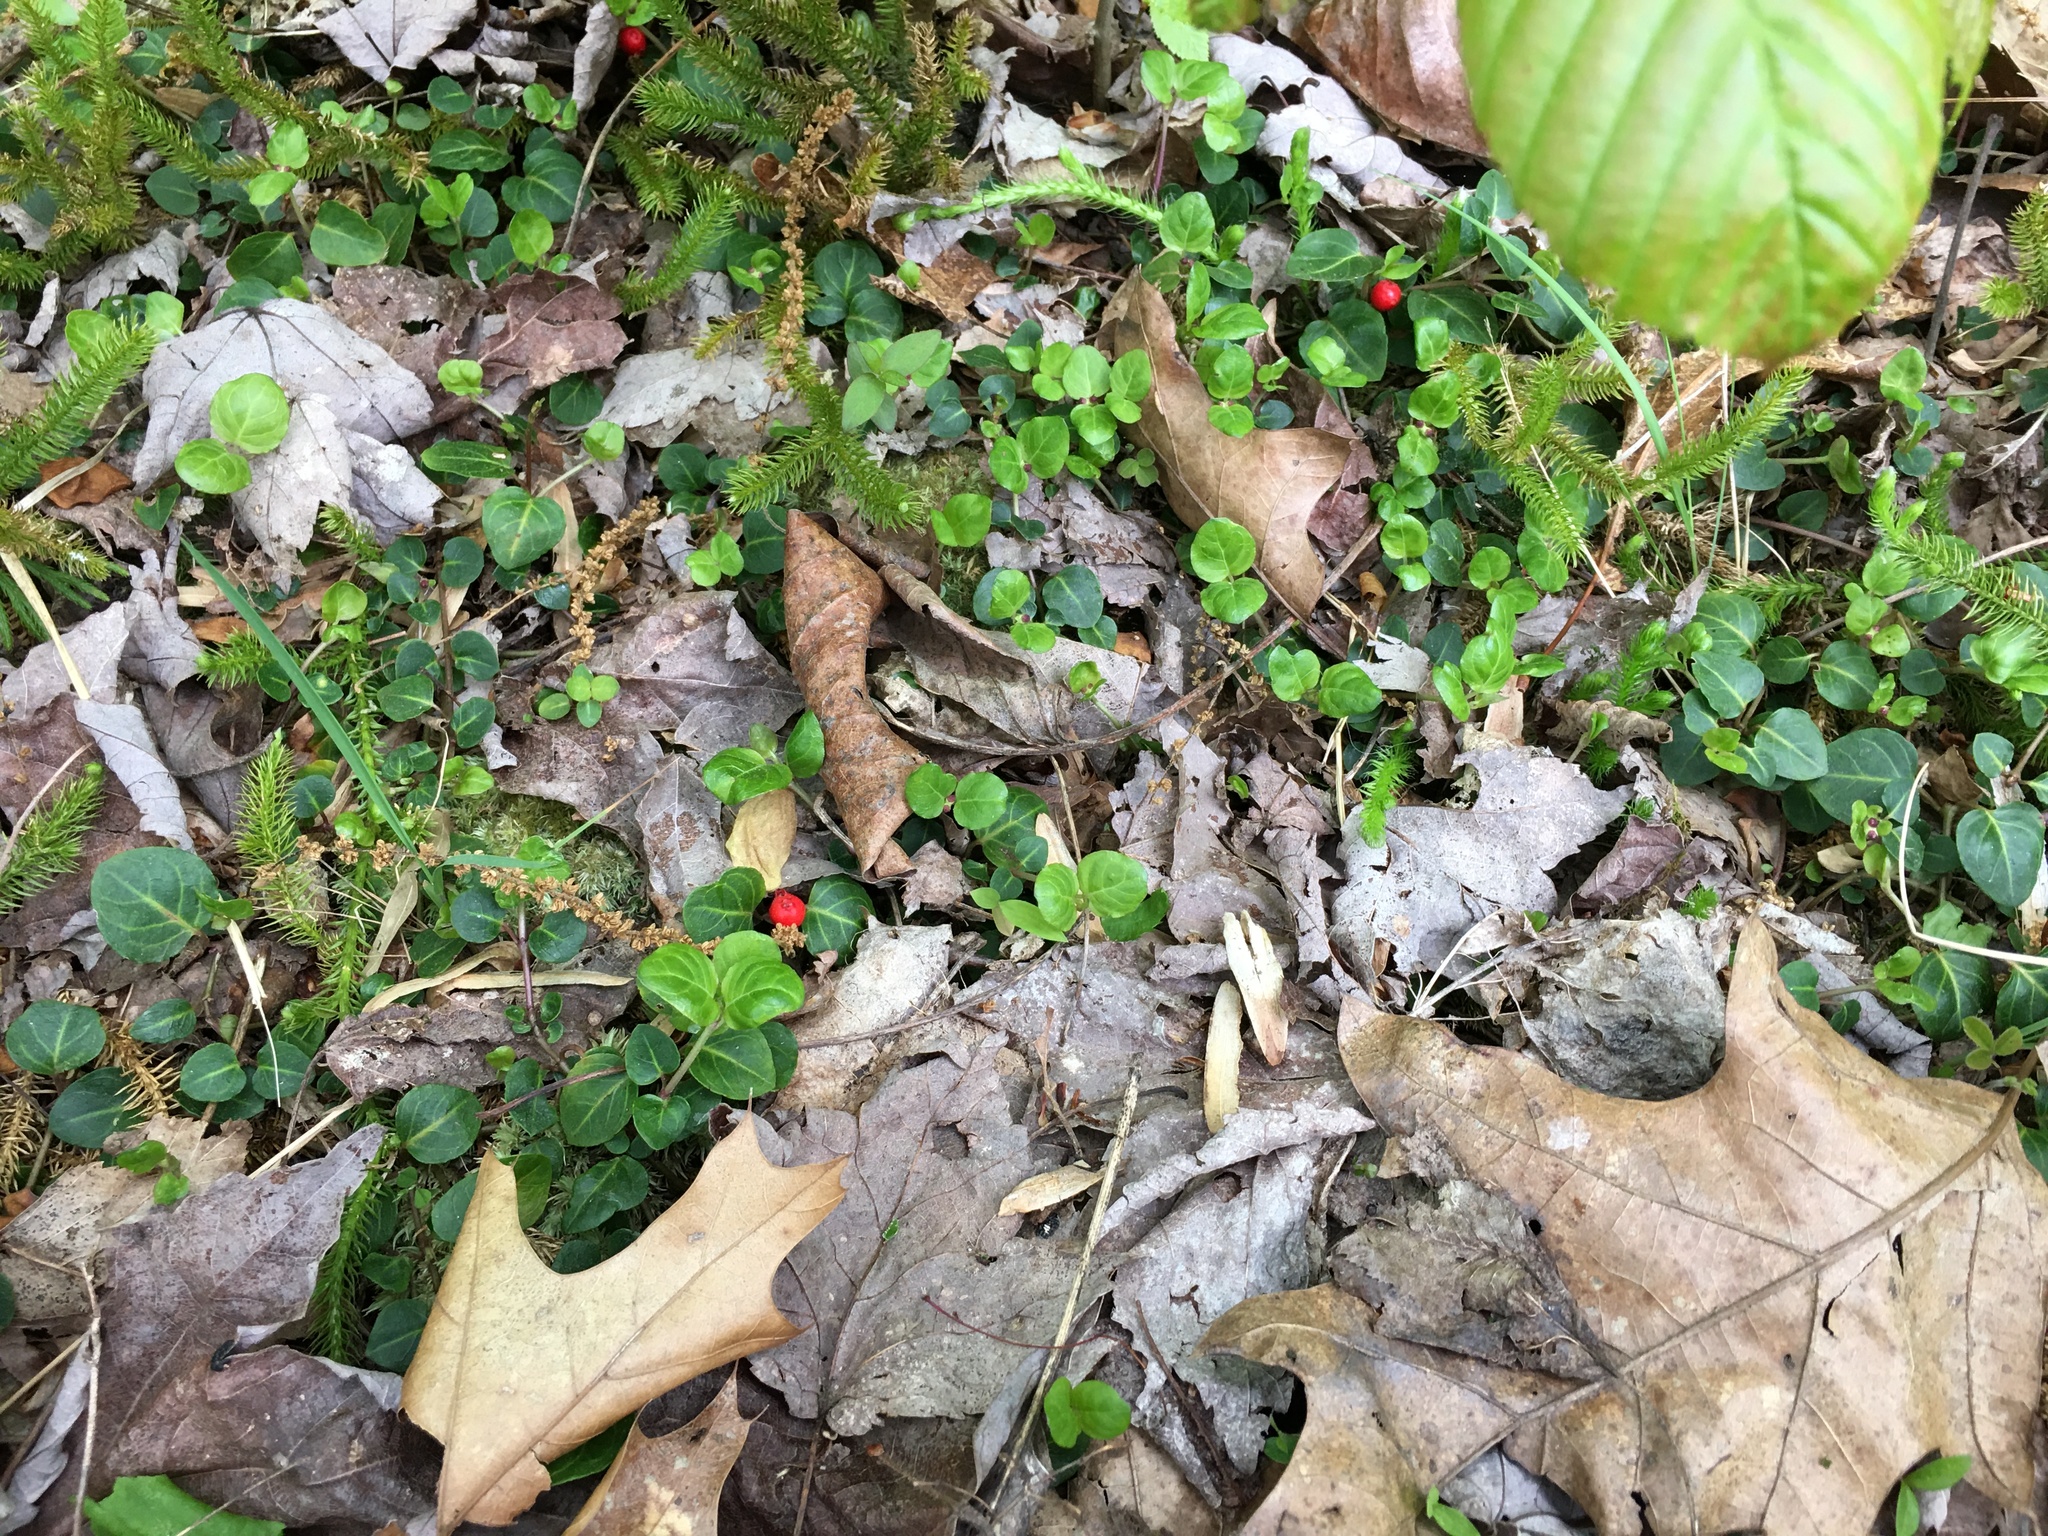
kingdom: Plantae
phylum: Tracheophyta
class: Magnoliopsida
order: Gentianales
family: Rubiaceae
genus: Mitchella
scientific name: Mitchella repens
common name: Partridge-berry
